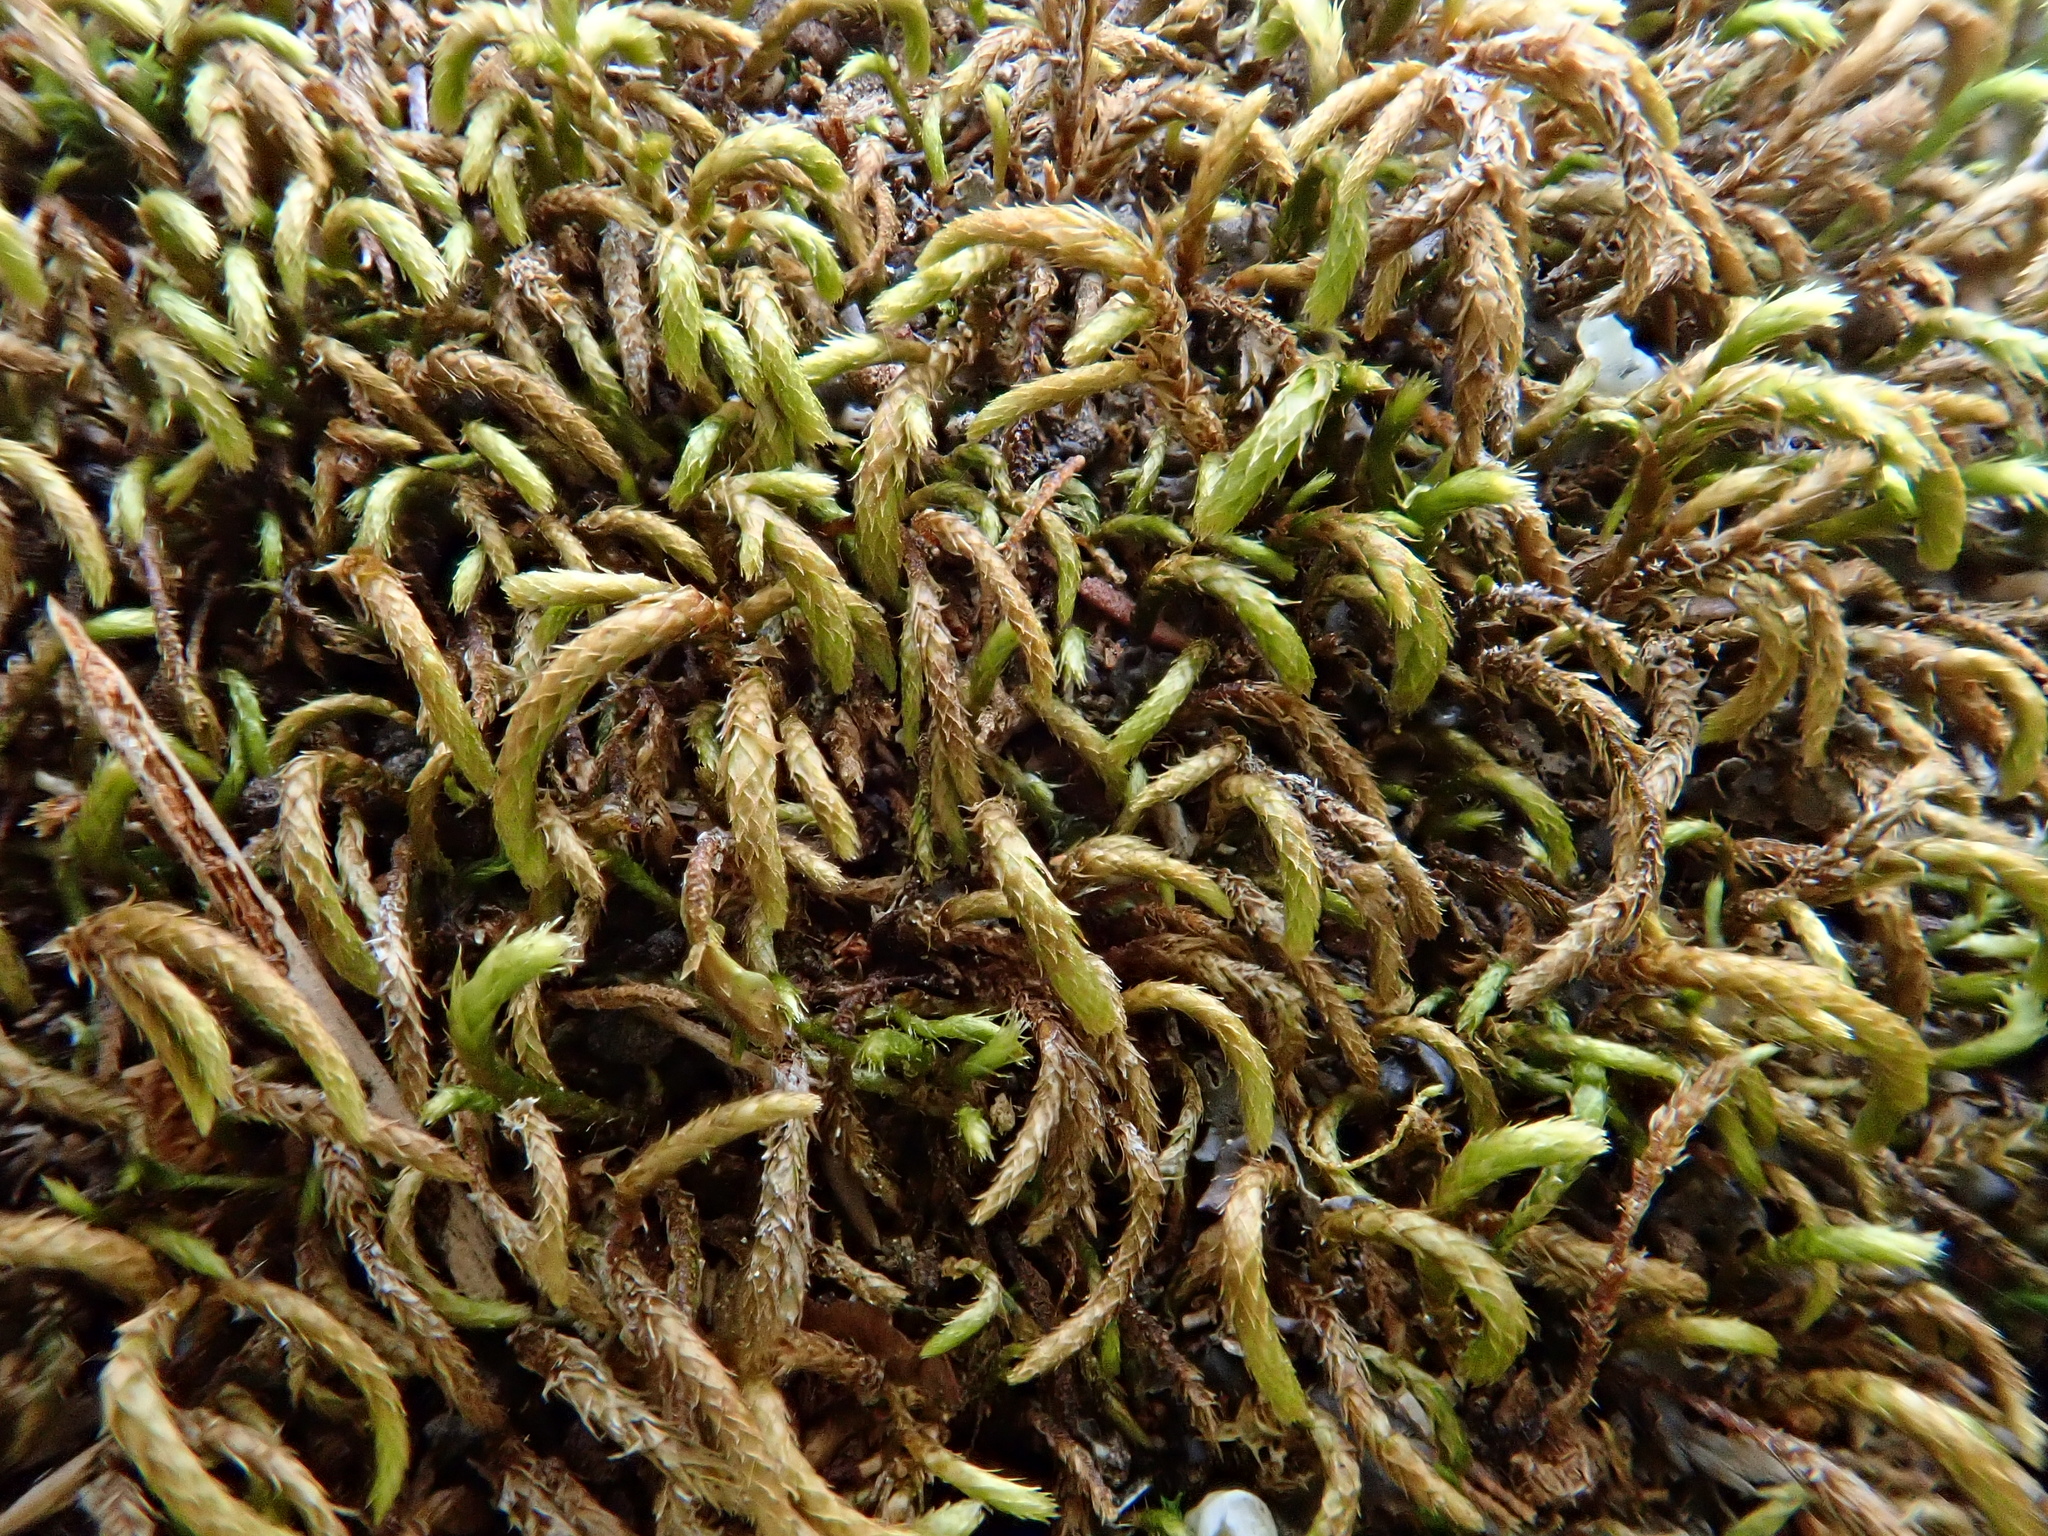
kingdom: Plantae
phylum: Bryophyta
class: Bryopsida
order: Hypnales
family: Lembophyllaceae
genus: Nogopterium
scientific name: Nogopterium gracile
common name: Bird's-foot wing-moss
